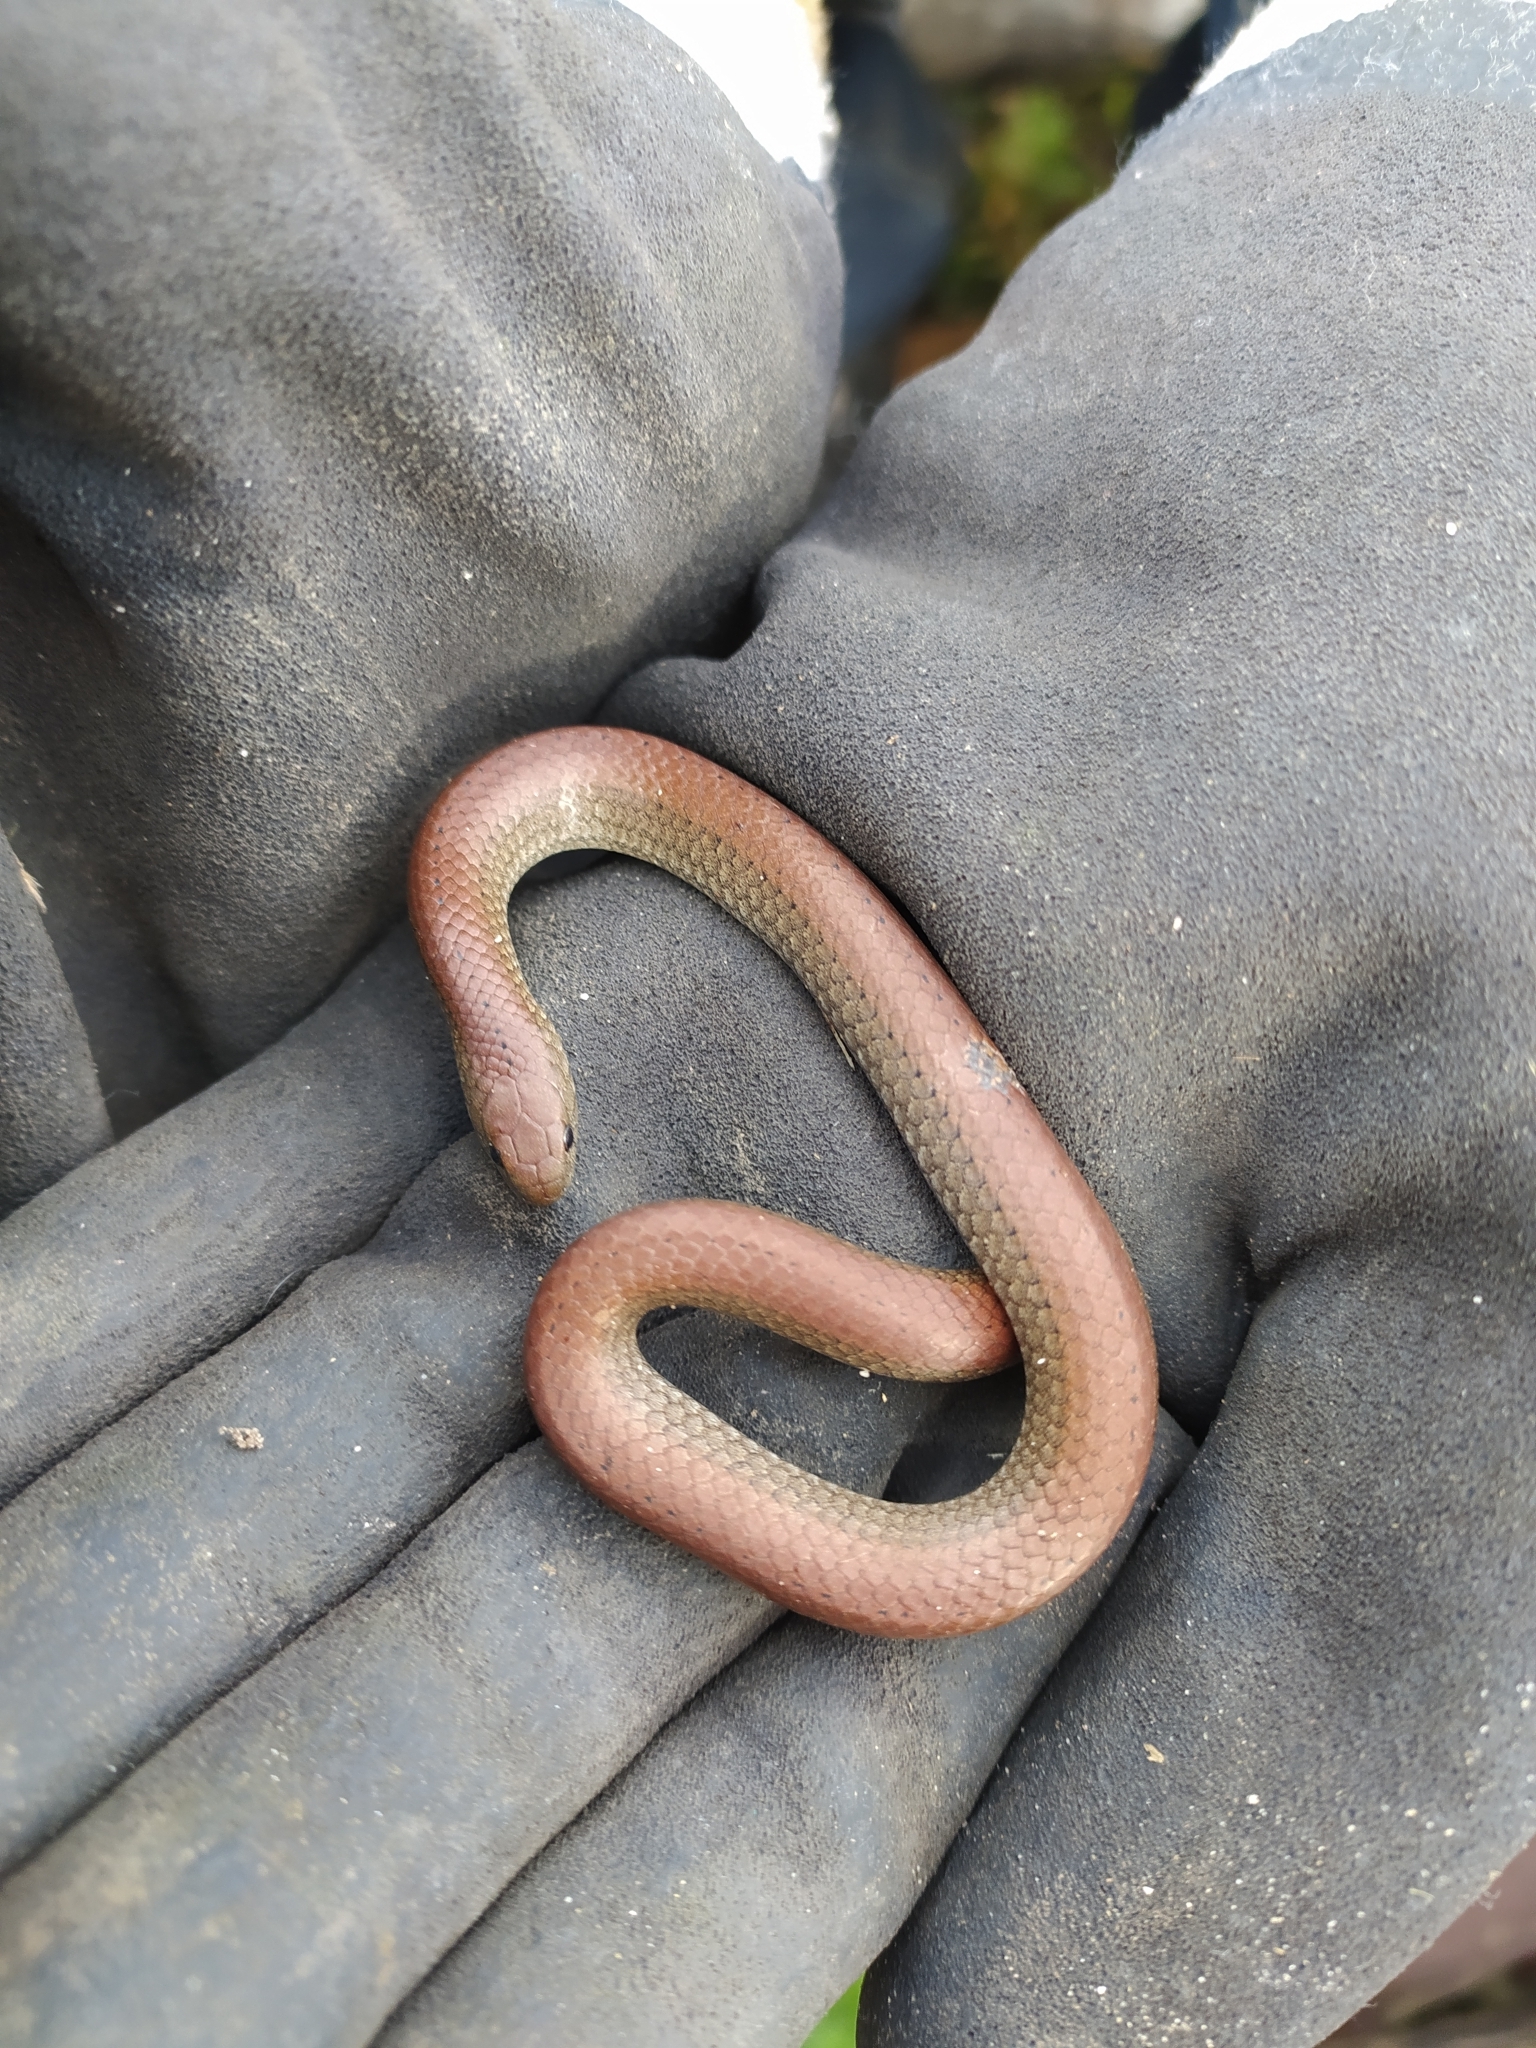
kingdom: Animalia
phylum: Chordata
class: Squamata
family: Pseudoxyrhophiidae
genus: Duberria
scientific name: Duberria lutrix
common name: Common slug eater
